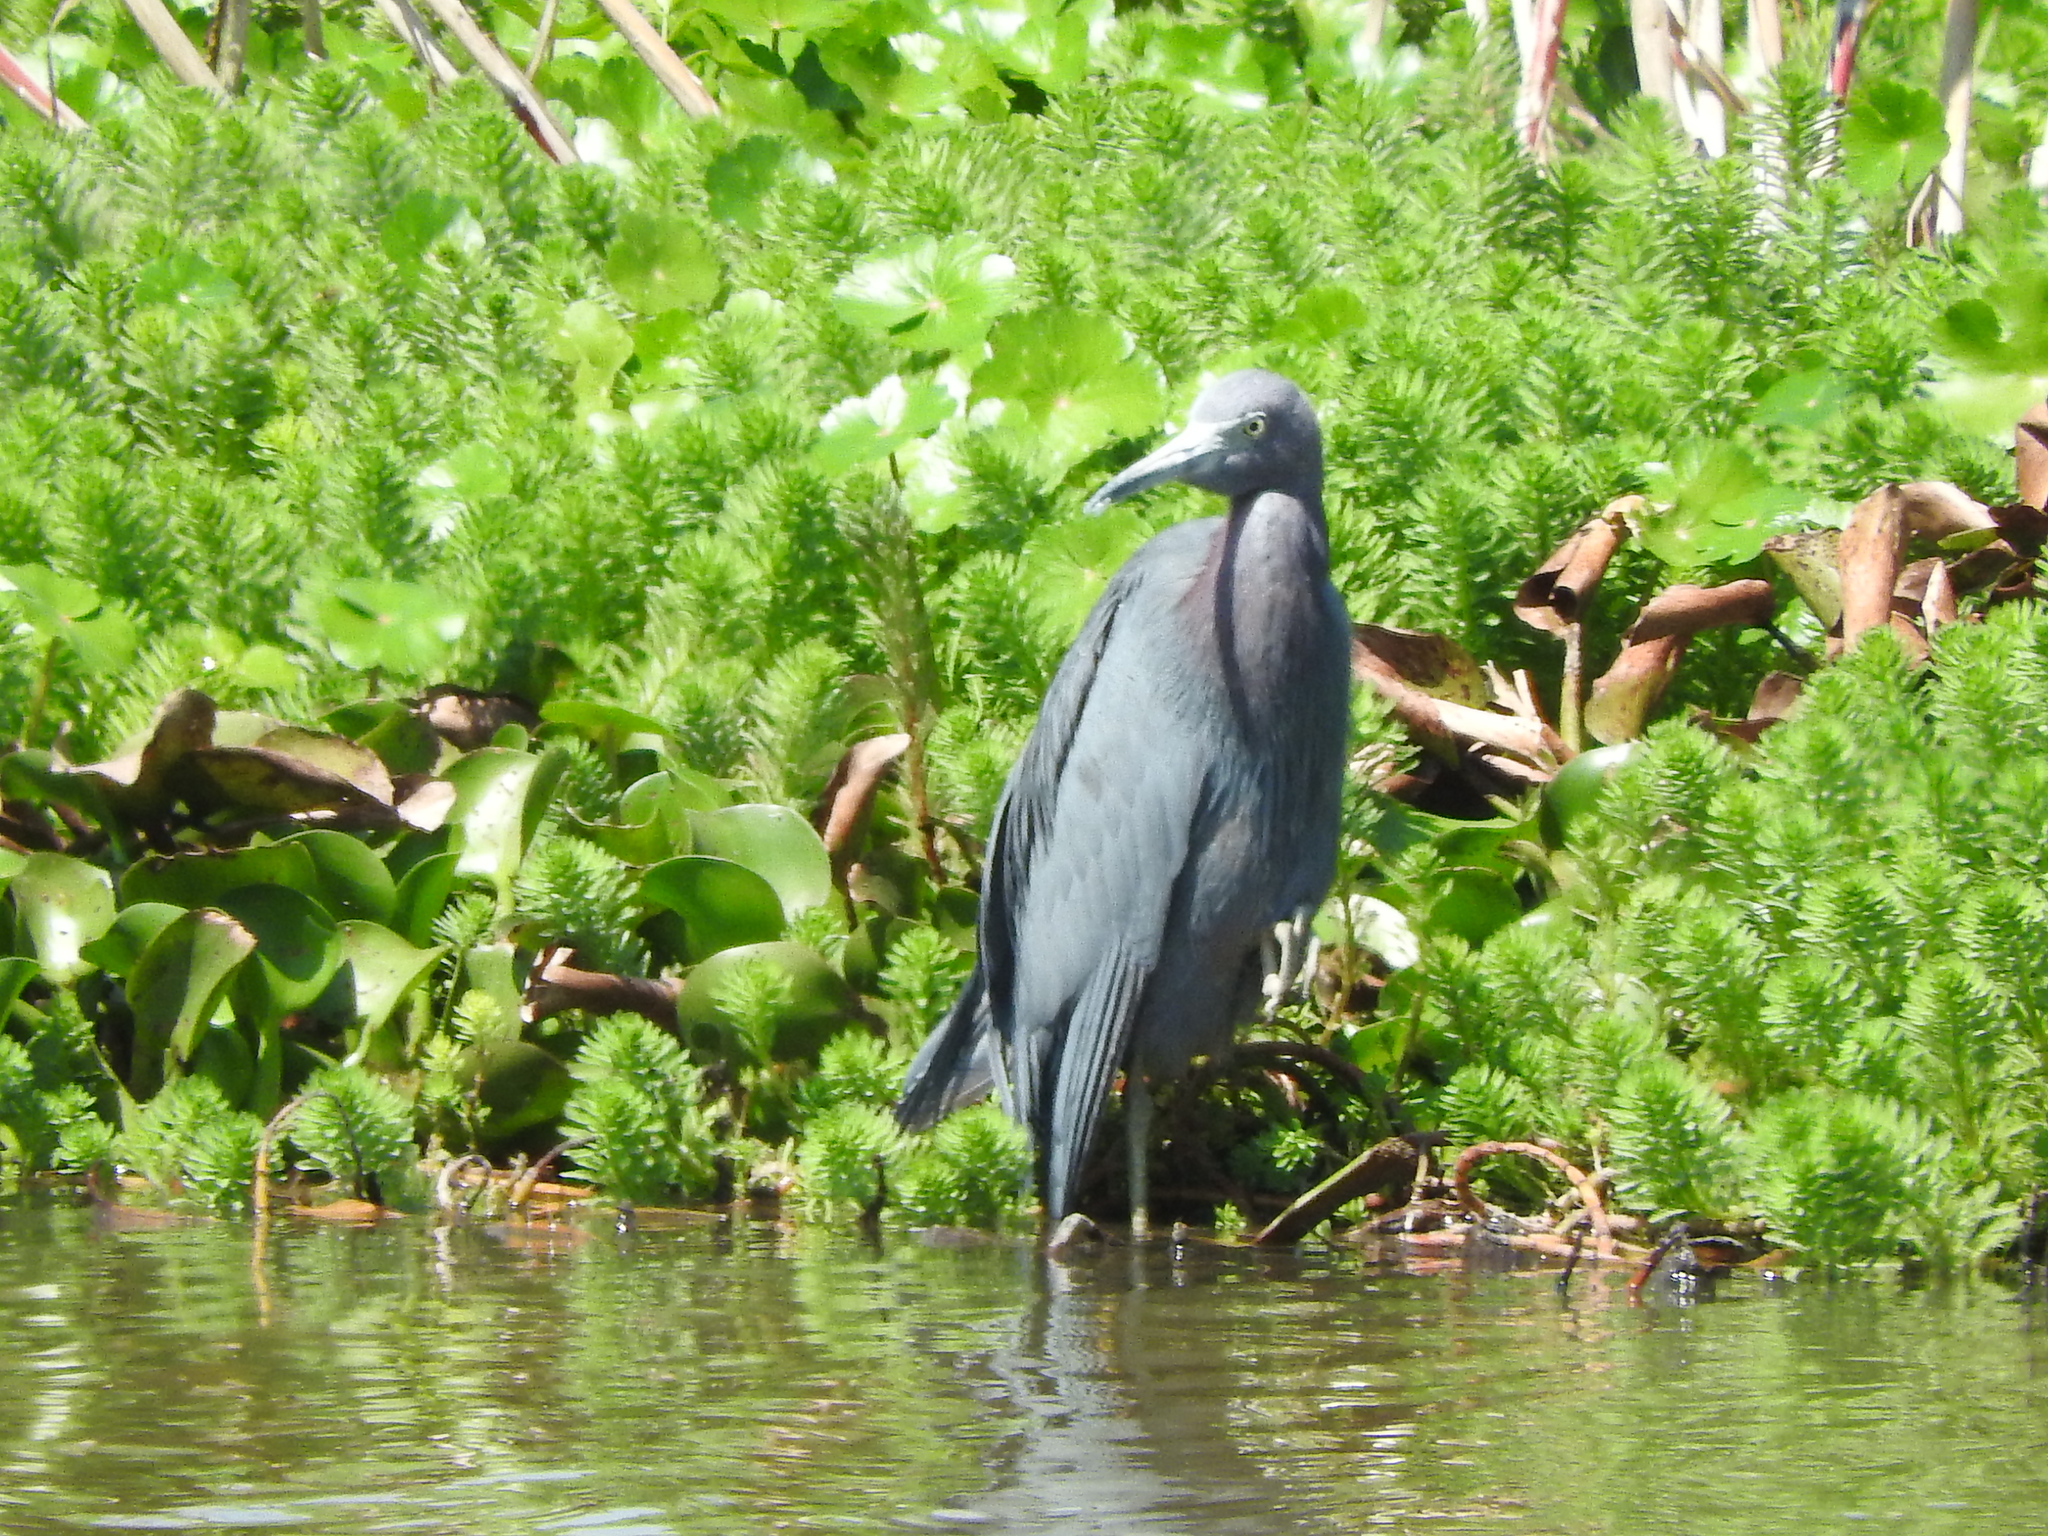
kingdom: Animalia
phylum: Chordata
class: Aves
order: Pelecaniformes
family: Ardeidae
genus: Egretta
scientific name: Egretta caerulea
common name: Little blue heron
